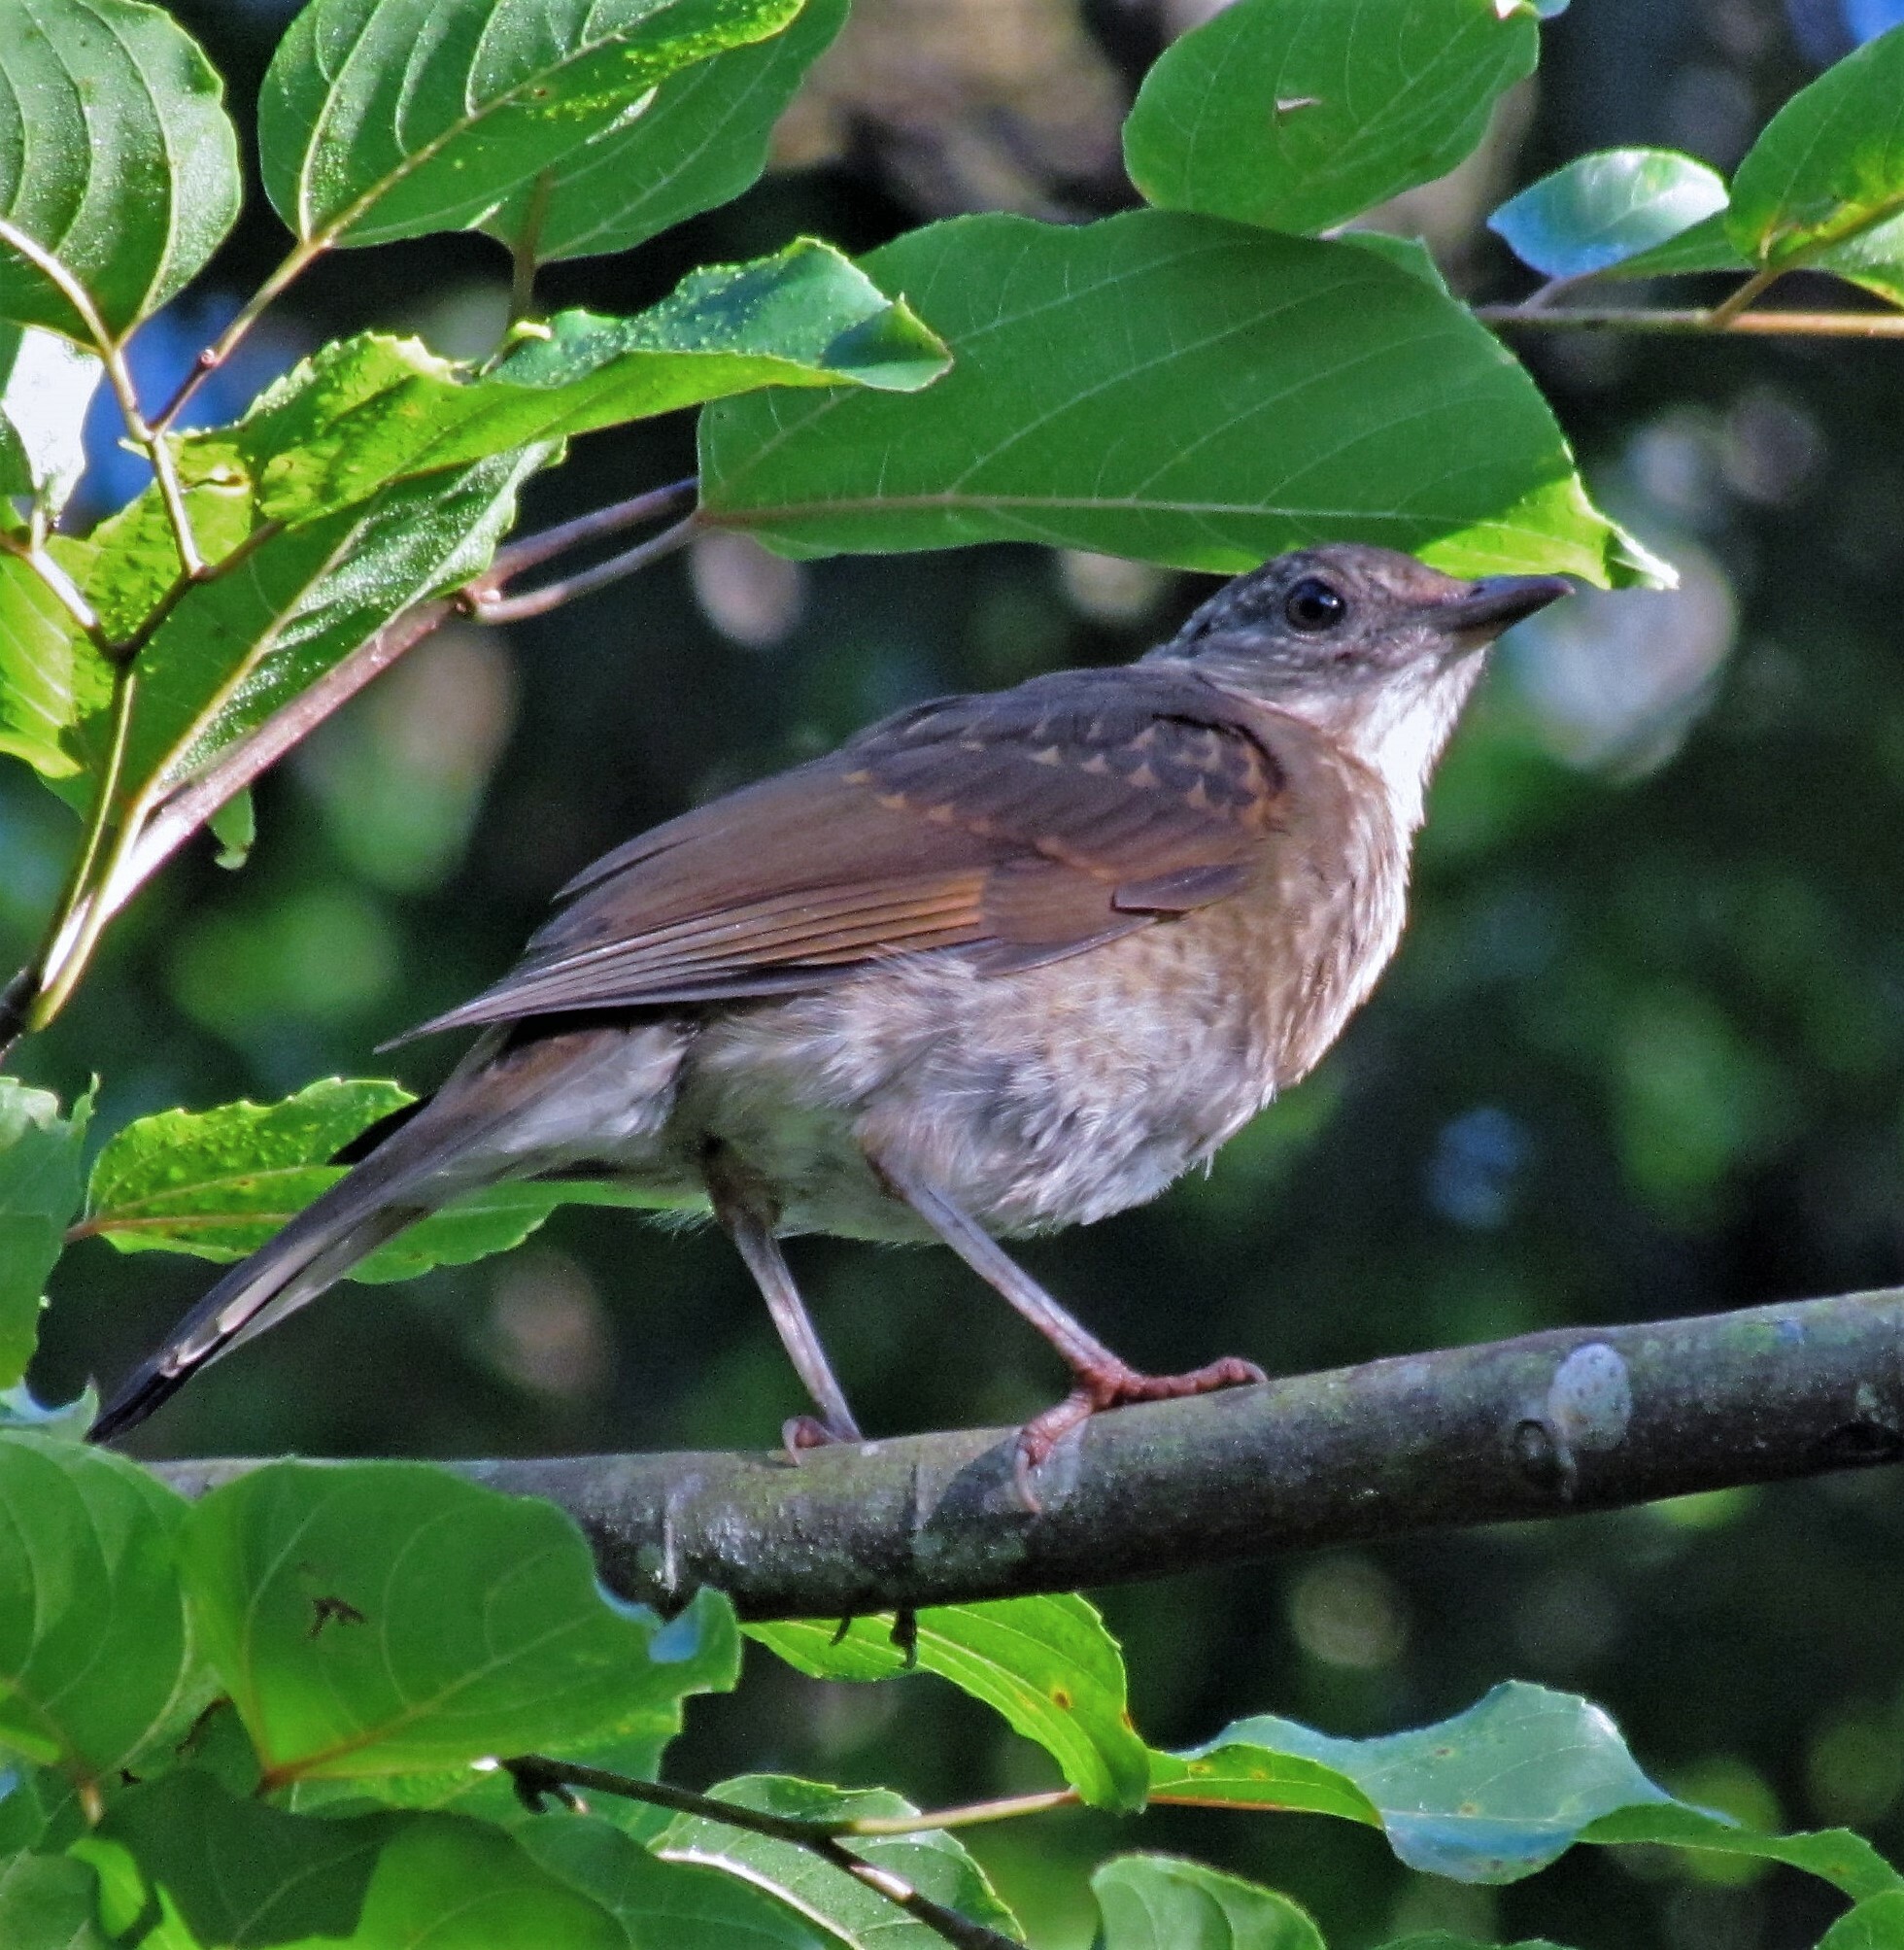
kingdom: Animalia
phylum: Chordata
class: Aves
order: Passeriformes
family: Turdidae
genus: Turdus
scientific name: Turdus leucomelas
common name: Pale-breasted thrush
